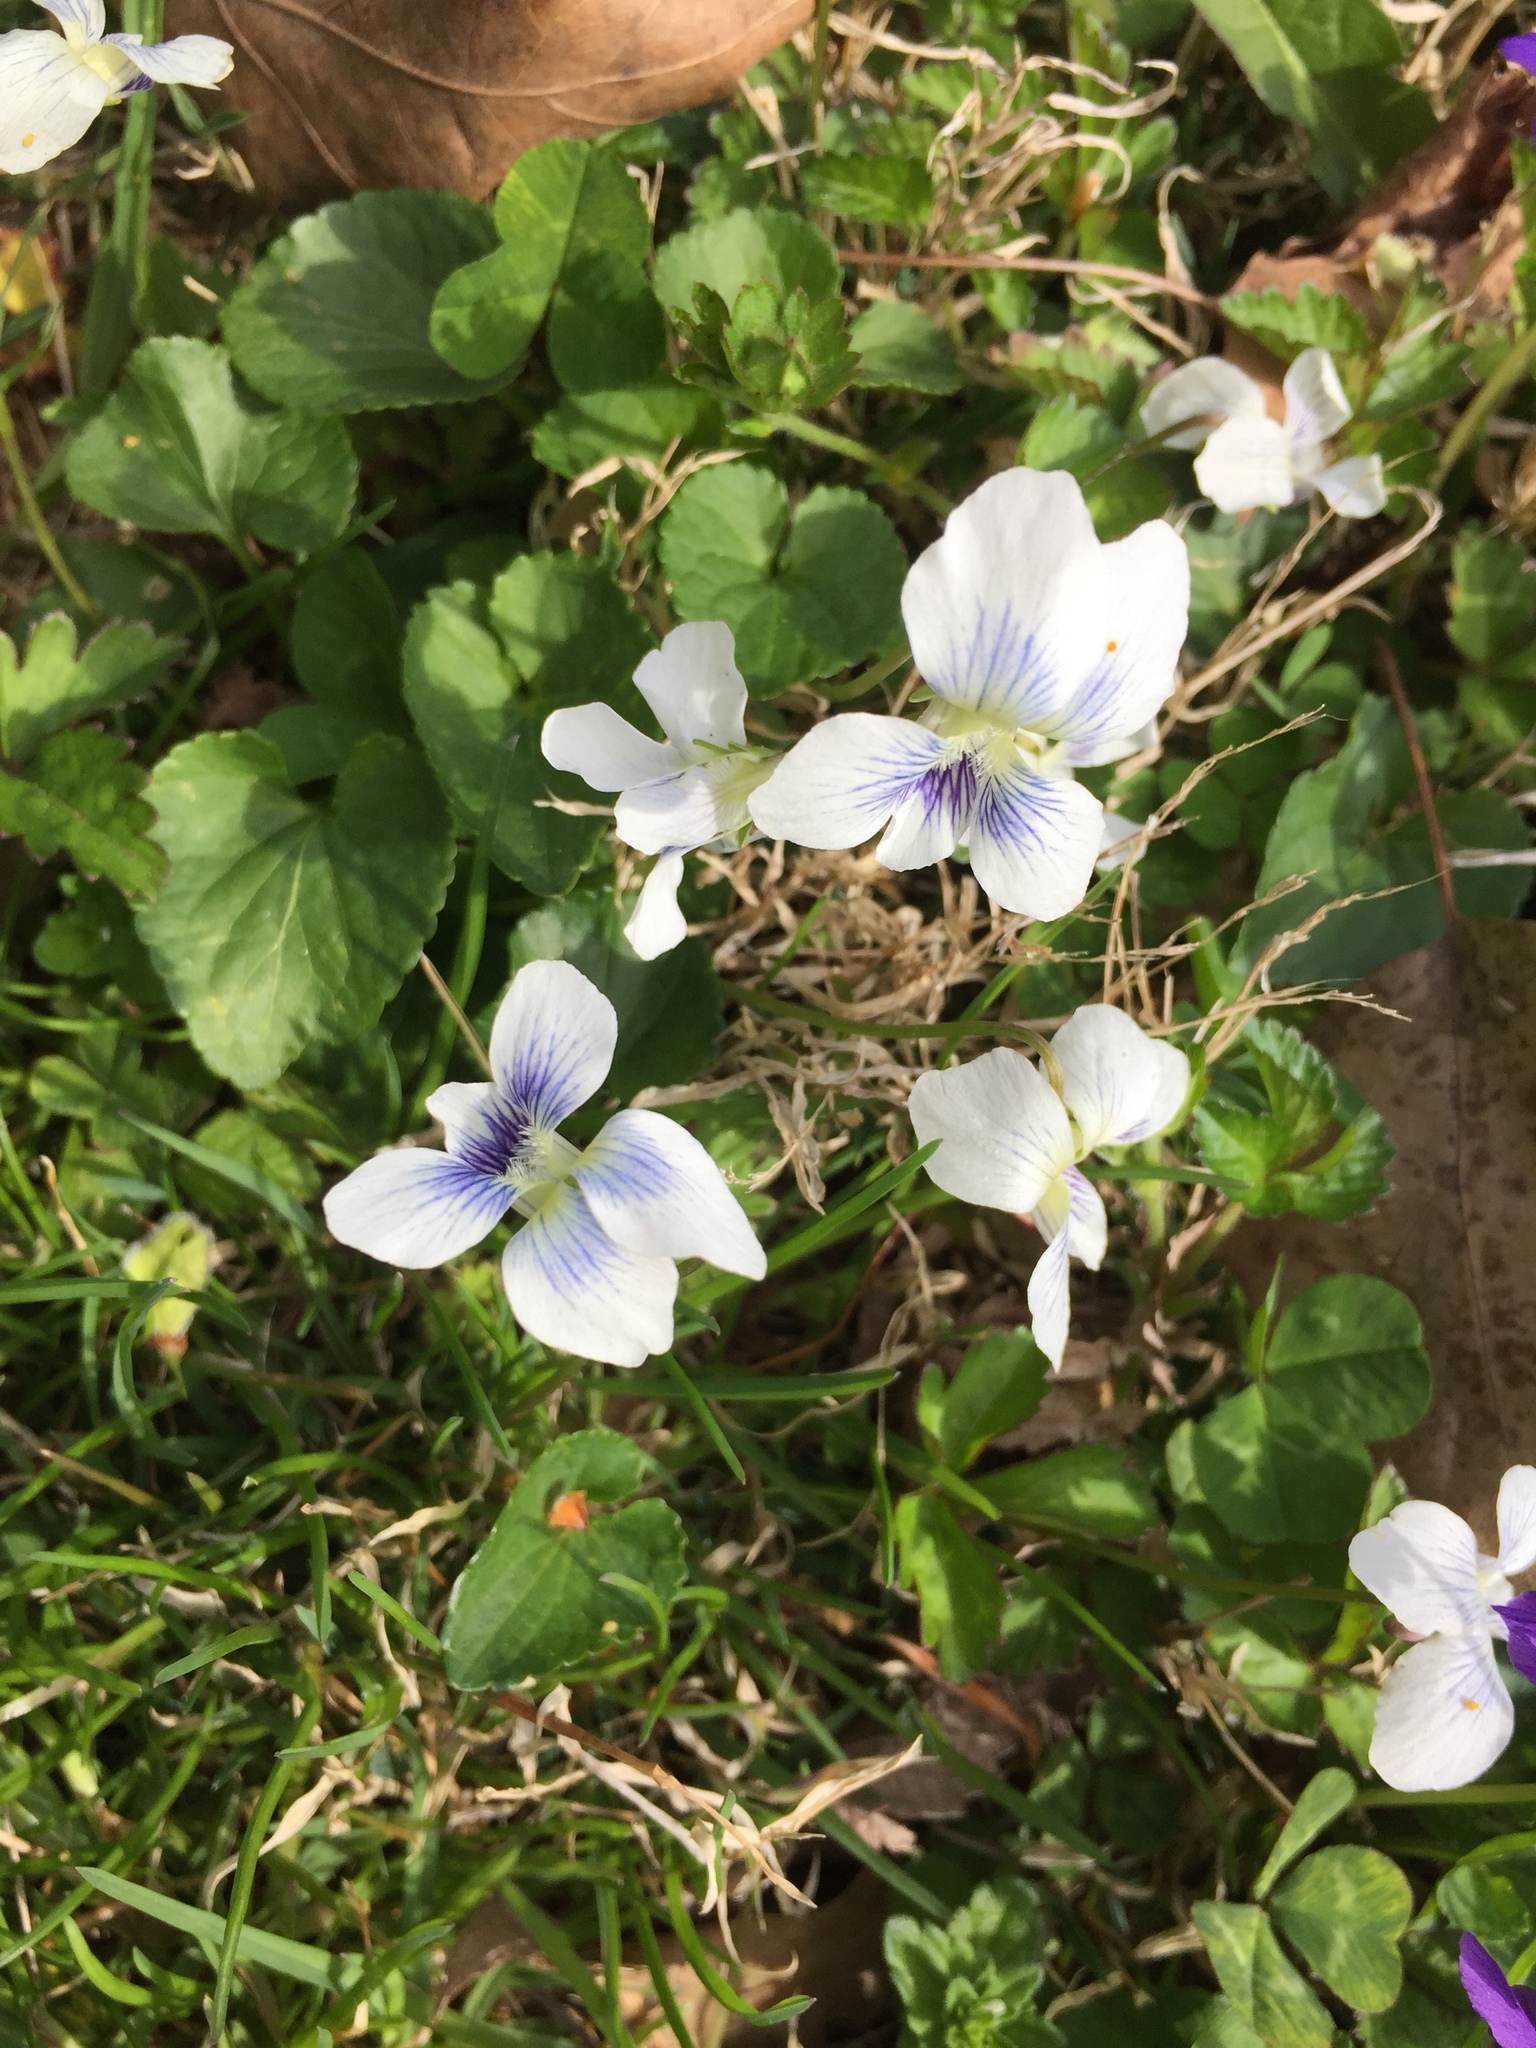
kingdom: Plantae
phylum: Tracheophyta
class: Magnoliopsida
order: Malpighiales
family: Violaceae
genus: Viola
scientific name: Viola sororia
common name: Dooryard violet
